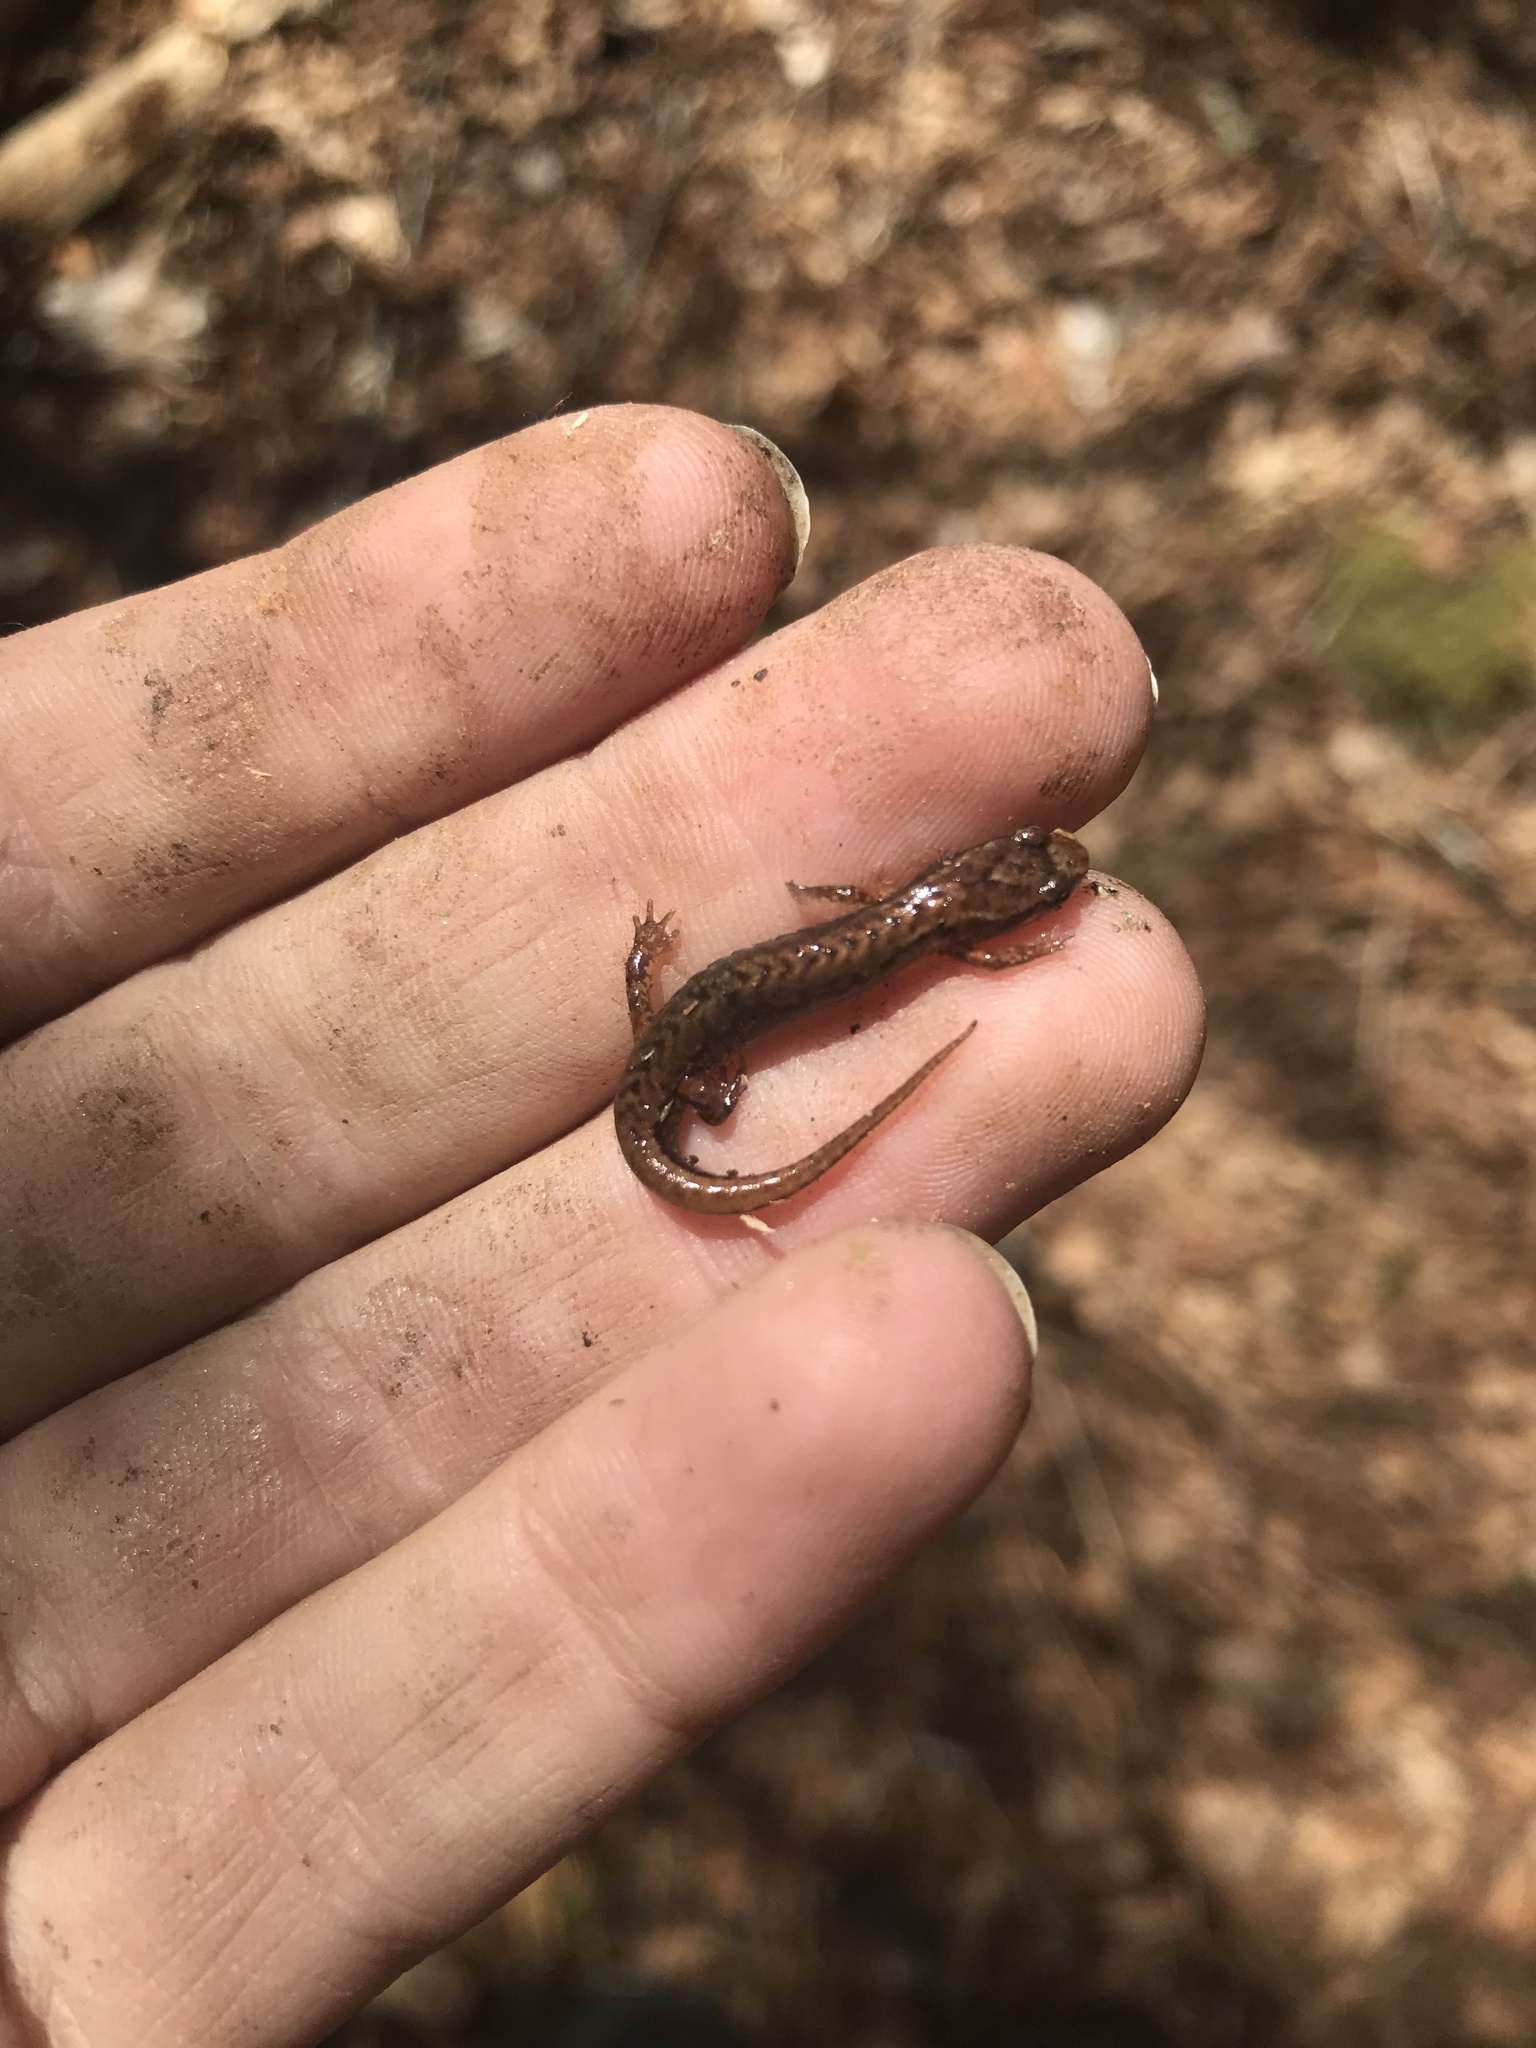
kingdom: Animalia
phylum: Chordata
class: Amphibia
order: Caudata
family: Plethodontidae
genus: Desmognathus
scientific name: Desmognathus wrighti
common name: Pygmy salamander
